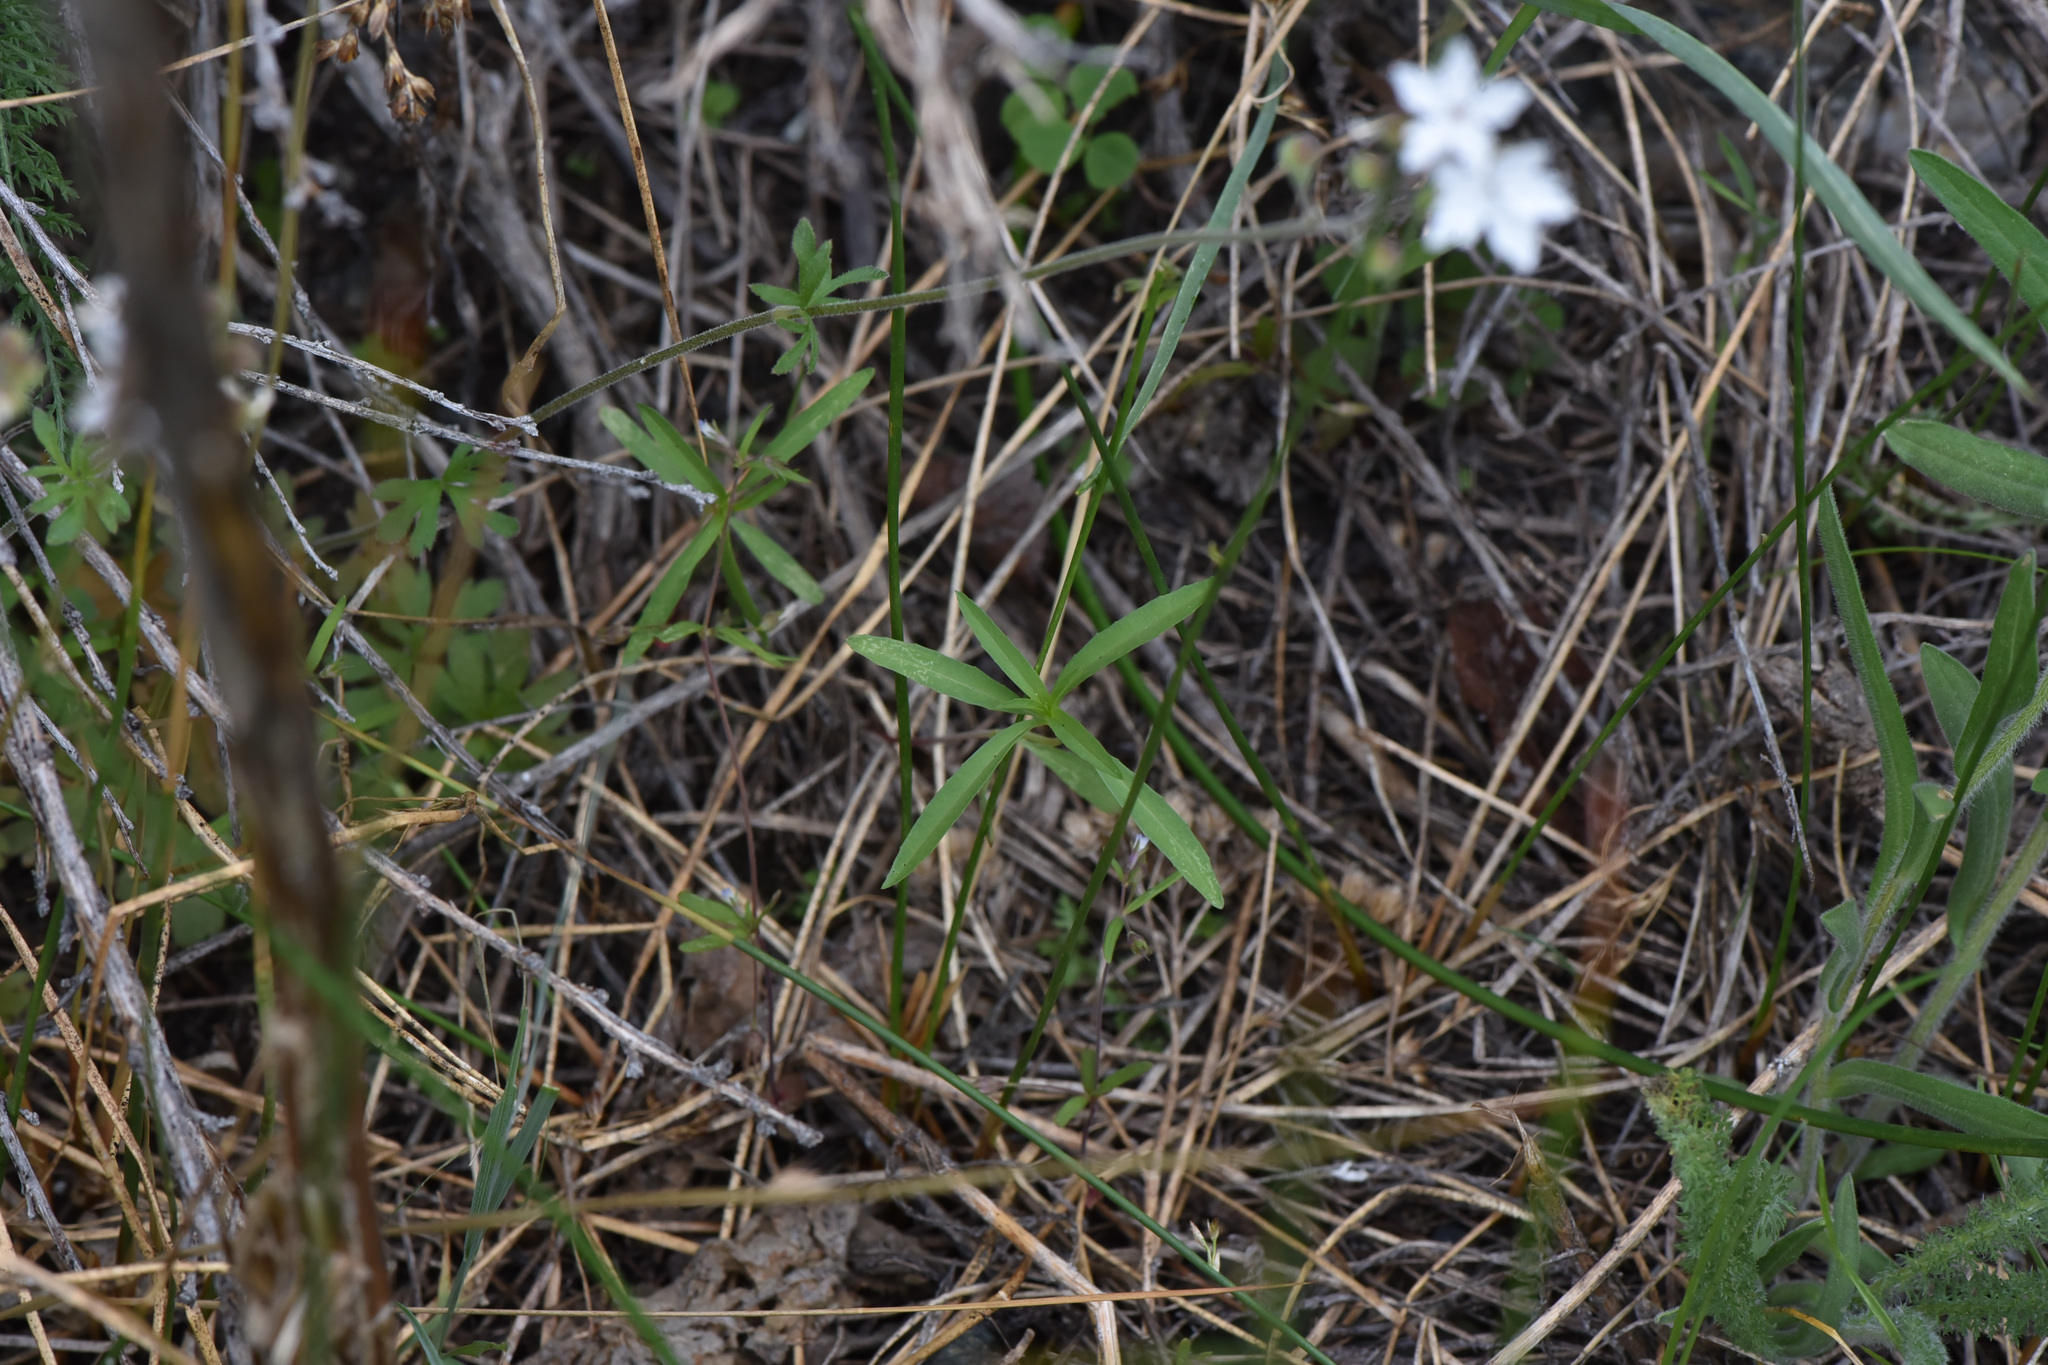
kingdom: Plantae
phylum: Tracheophyta
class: Magnoliopsida
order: Saxifragales
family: Saxifragaceae
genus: Lithophragma
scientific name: Lithophragma parviflorum
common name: Small-flowered fringe-cup
